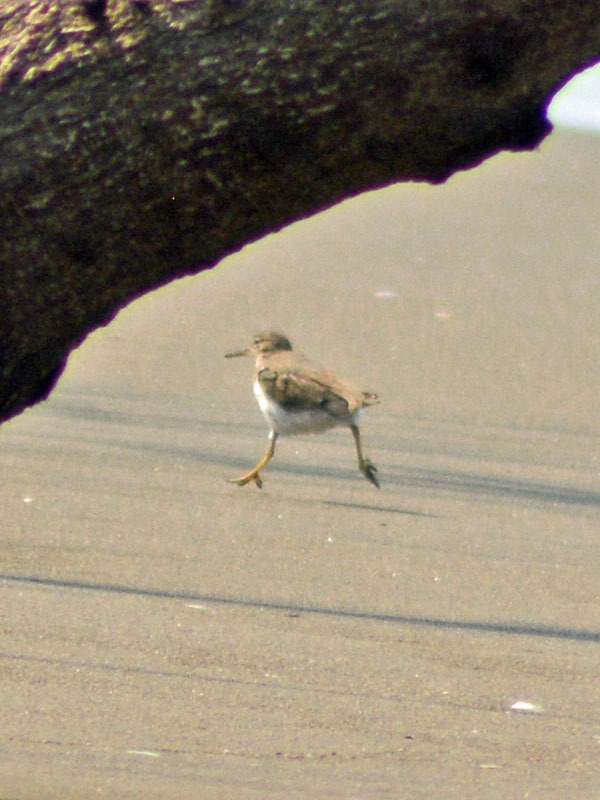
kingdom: Animalia
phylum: Chordata
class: Aves
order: Charadriiformes
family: Scolopacidae
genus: Actitis
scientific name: Actitis macularius
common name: Spotted sandpiper
